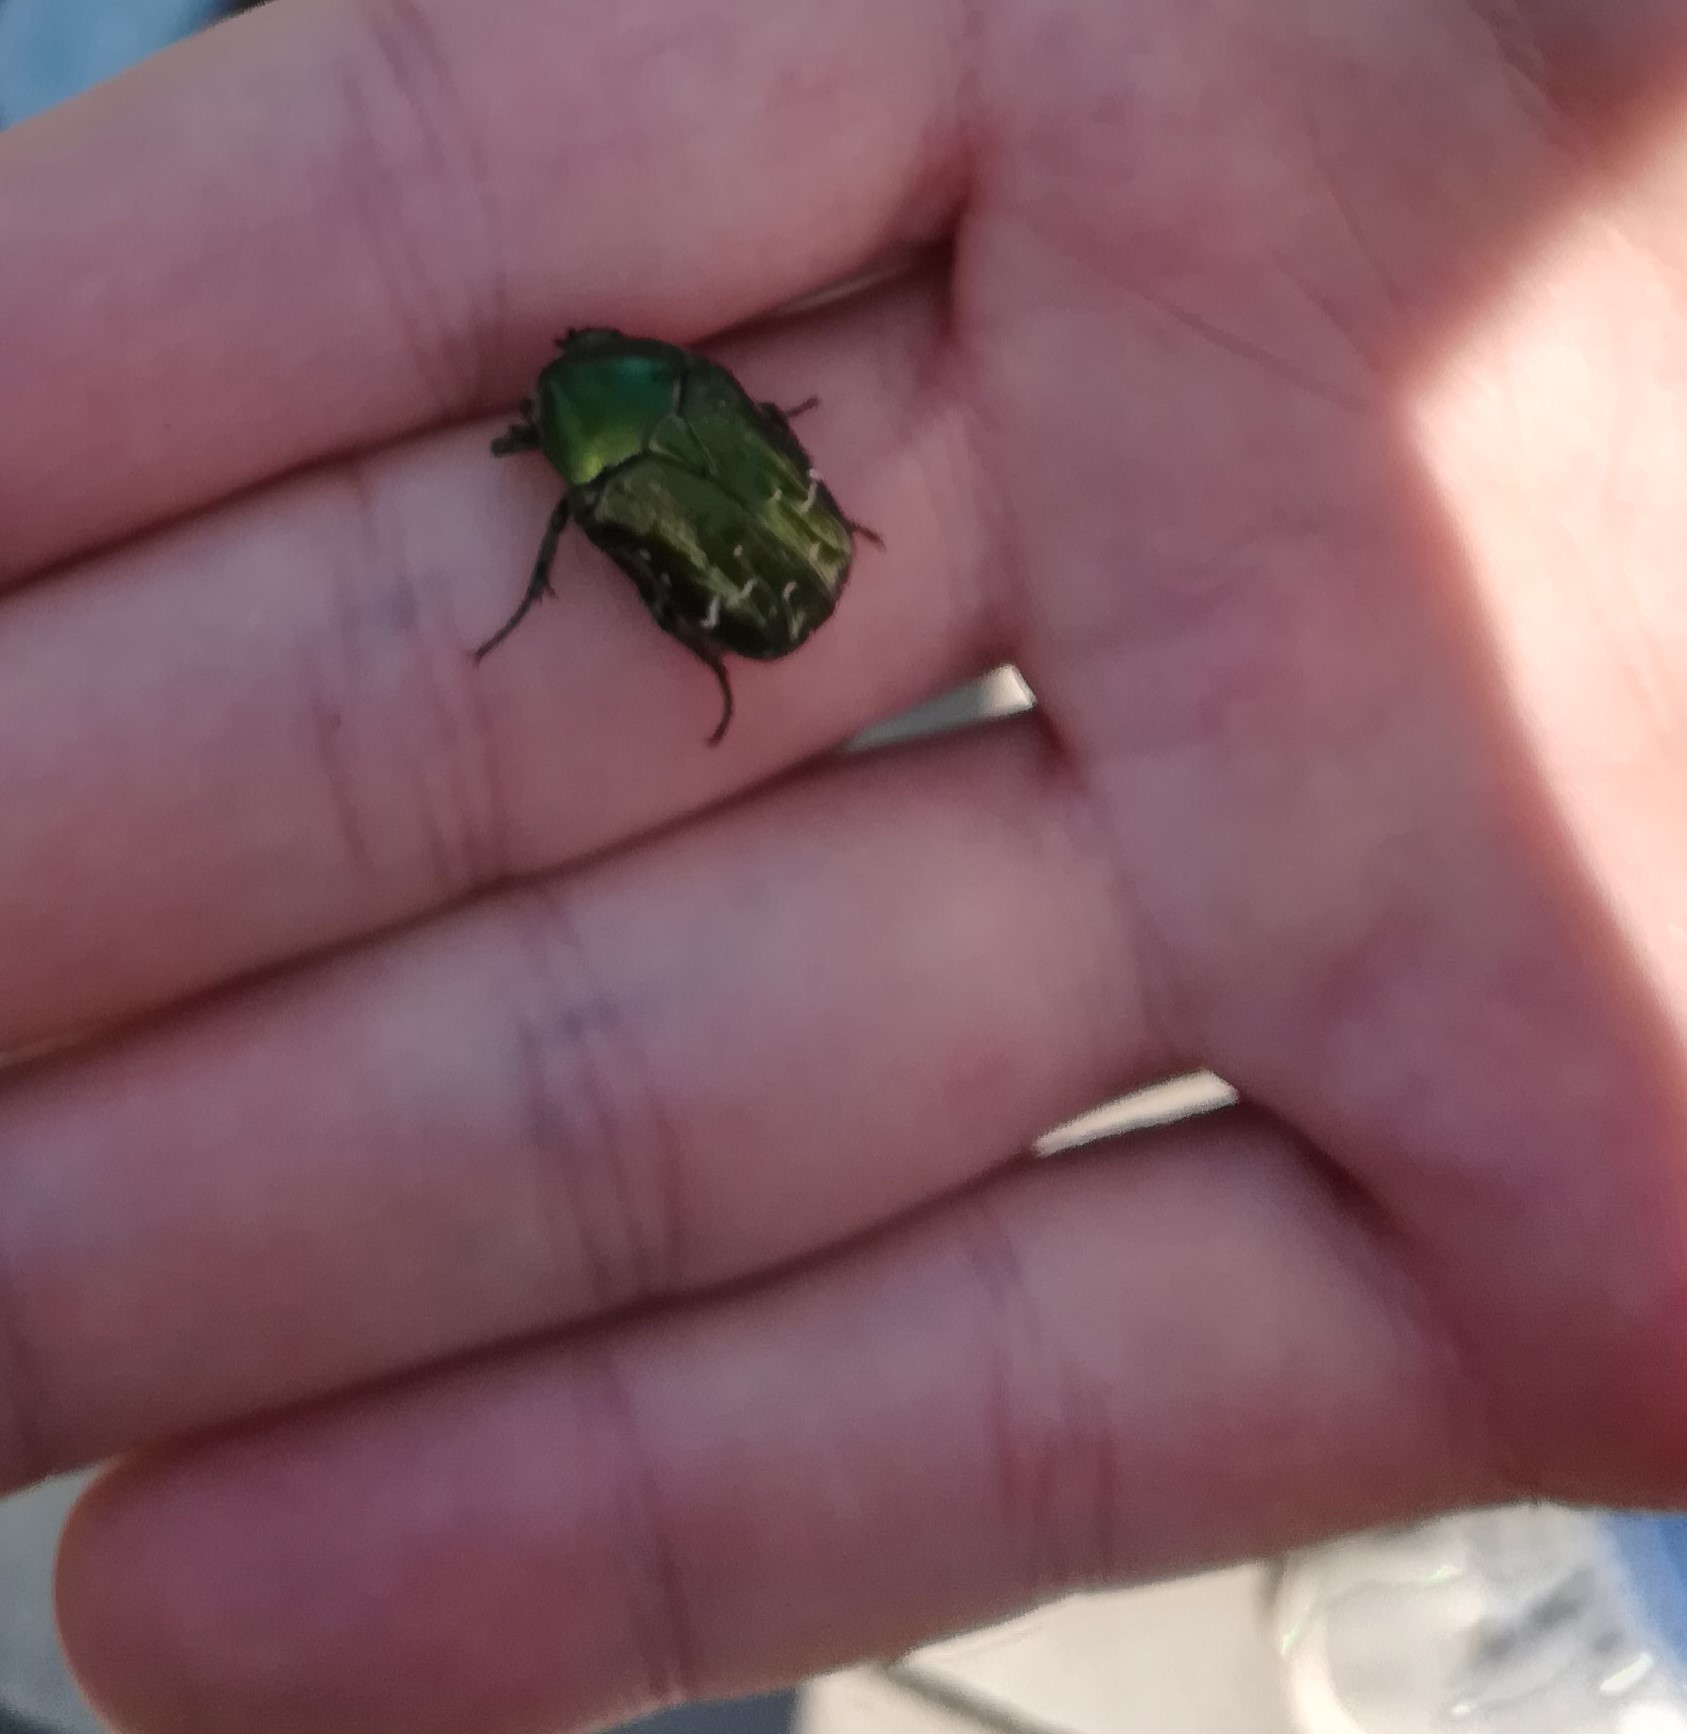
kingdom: Animalia
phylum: Arthropoda
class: Insecta
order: Coleoptera
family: Scarabaeidae
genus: Cetonia
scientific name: Cetonia aurata
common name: Rose chafer
